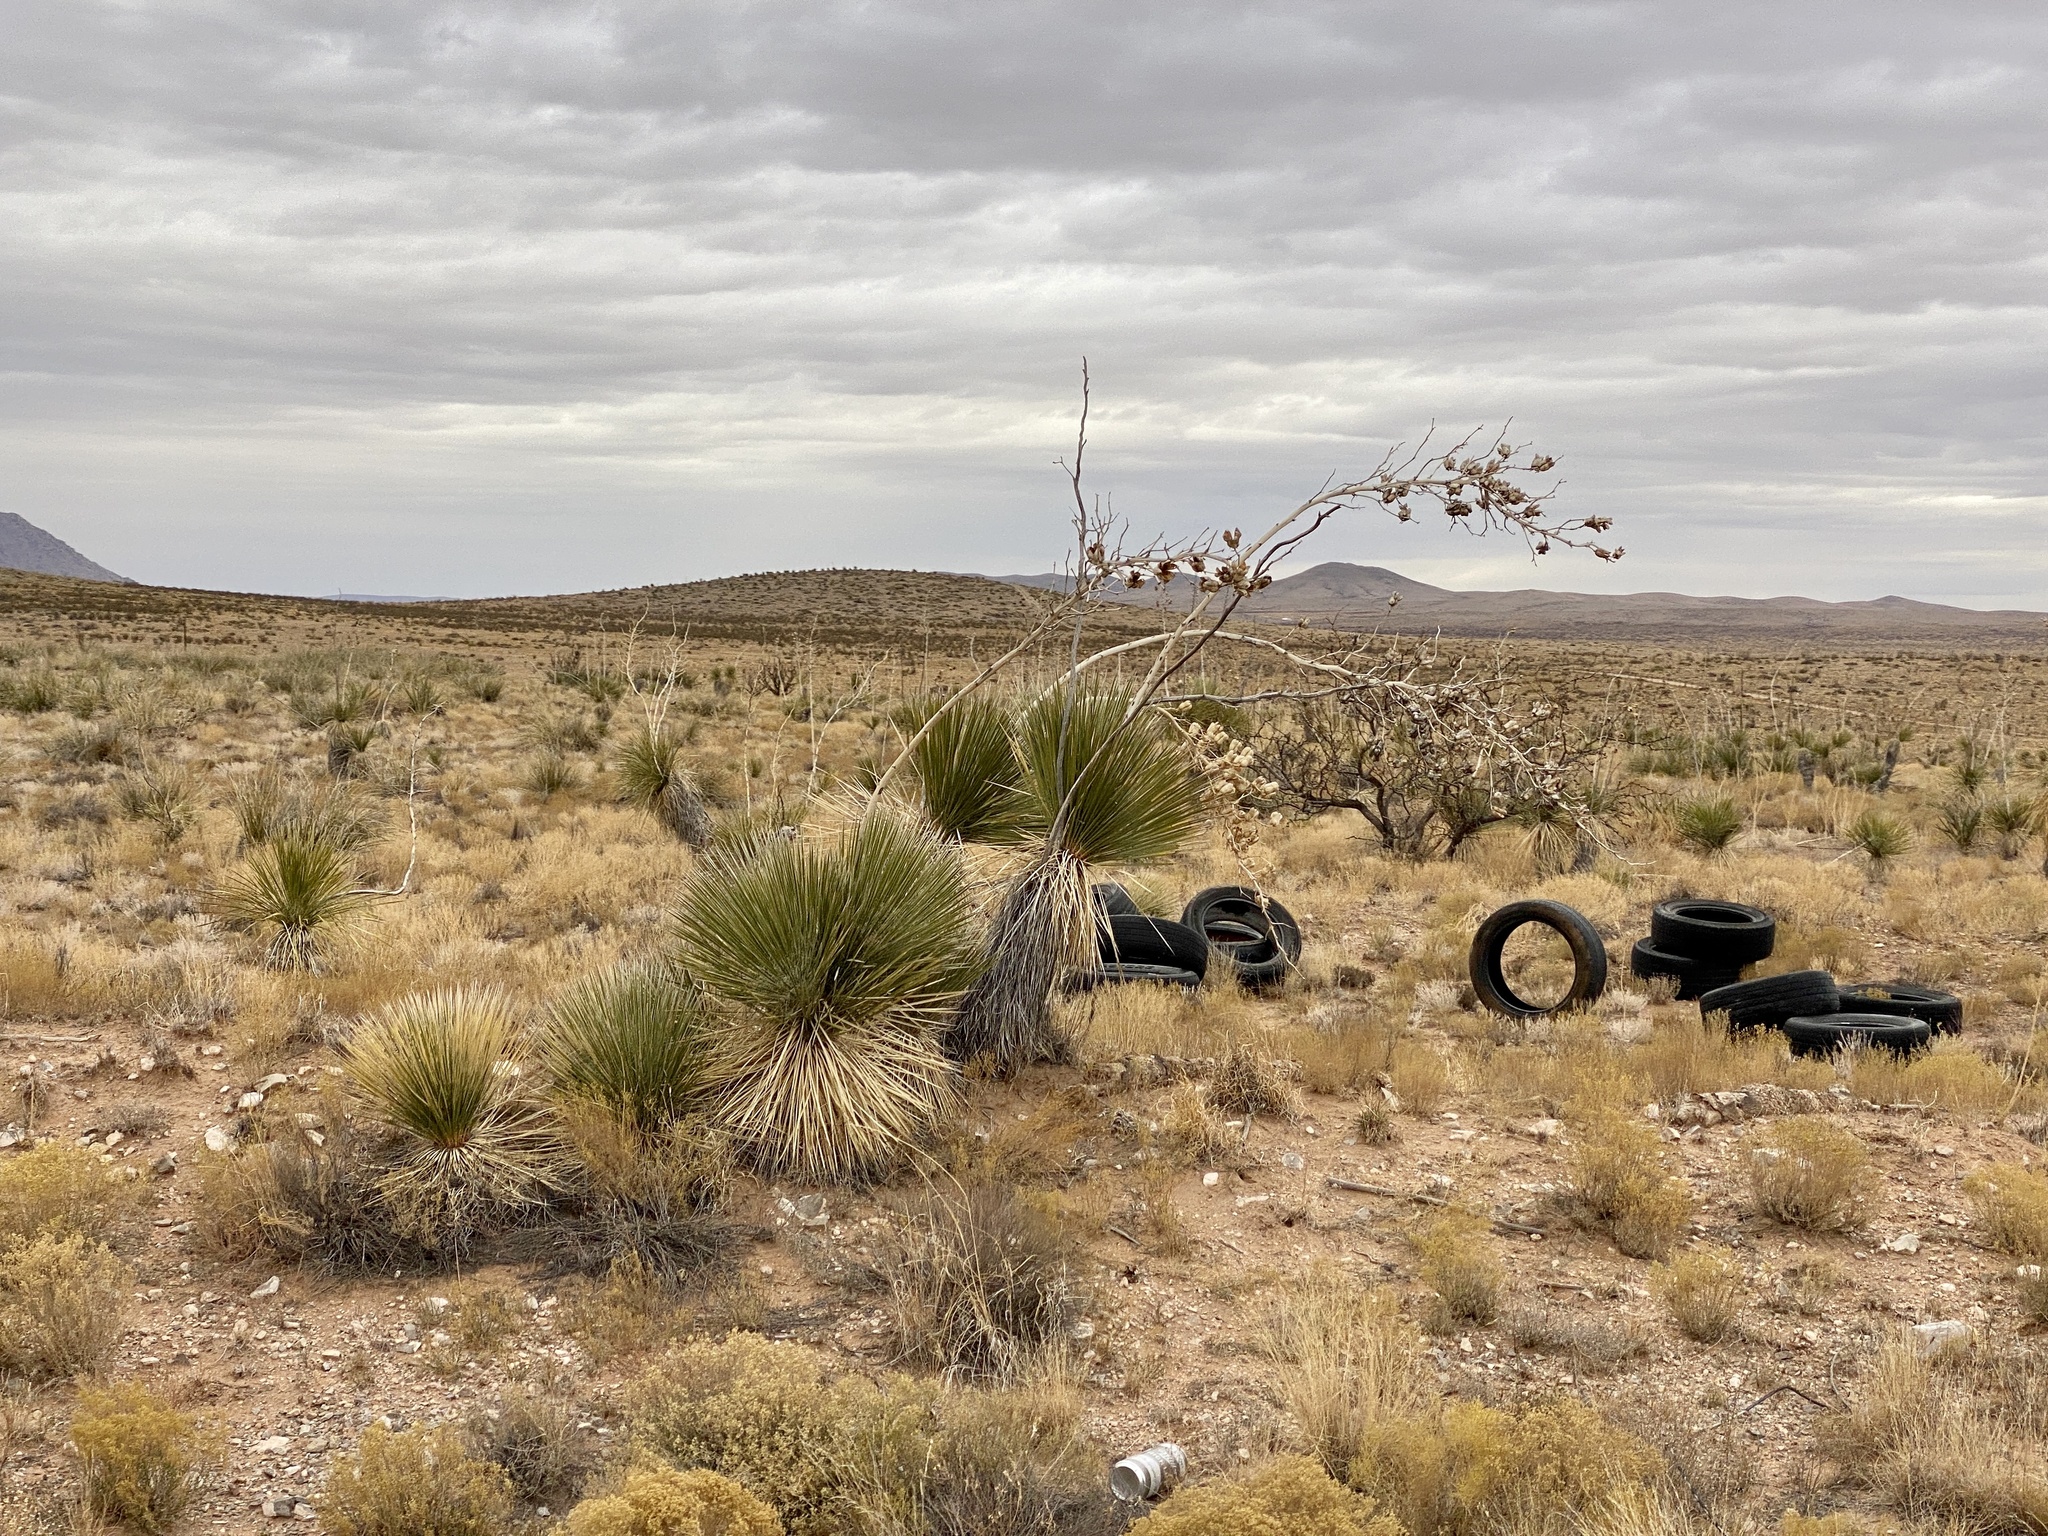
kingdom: Plantae
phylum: Tracheophyta
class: Liliopsida
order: Asparagales
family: Asparagaceae
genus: Yucca
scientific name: Yucca elata
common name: Palmella
